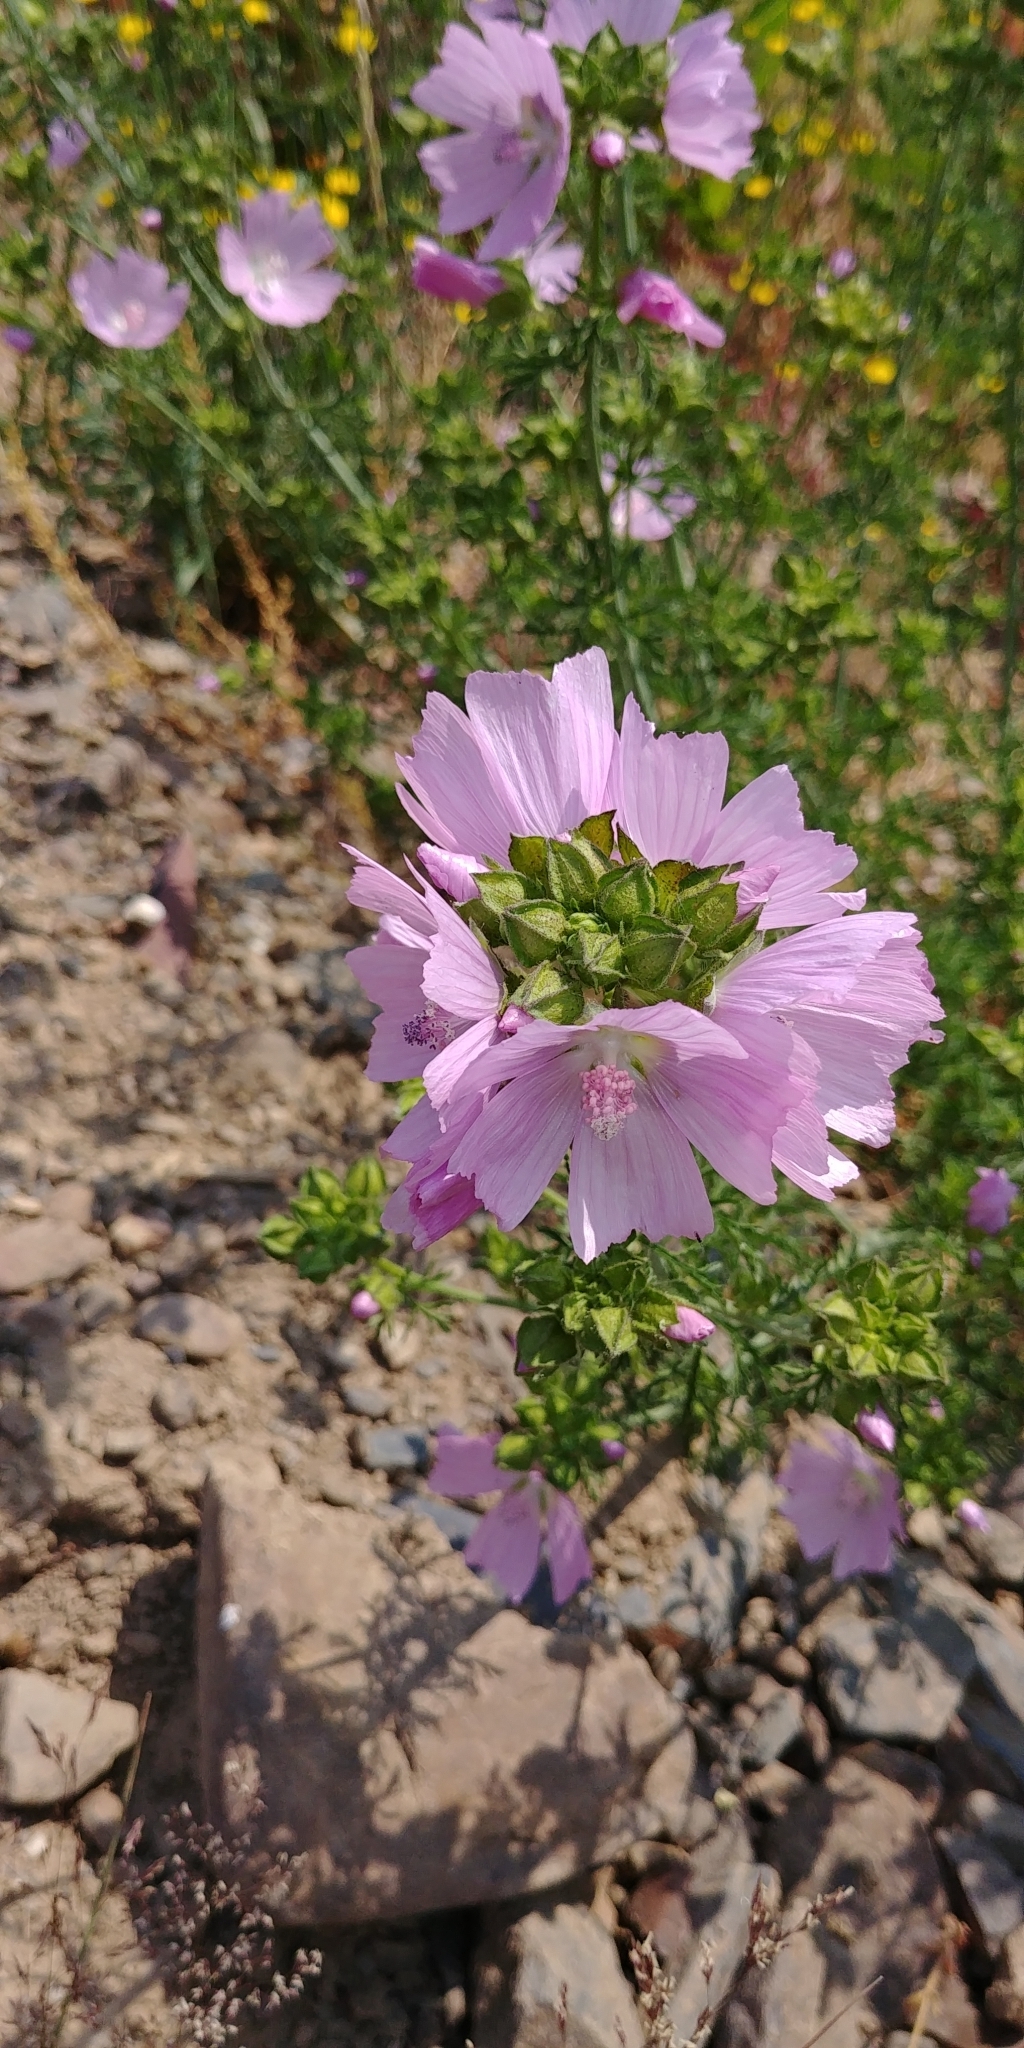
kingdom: Plantae
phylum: Tracheophyta
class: Magnoliopsida
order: Malvales
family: Malvaceae
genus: Malva
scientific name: Malva moschata
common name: Musk mallow
